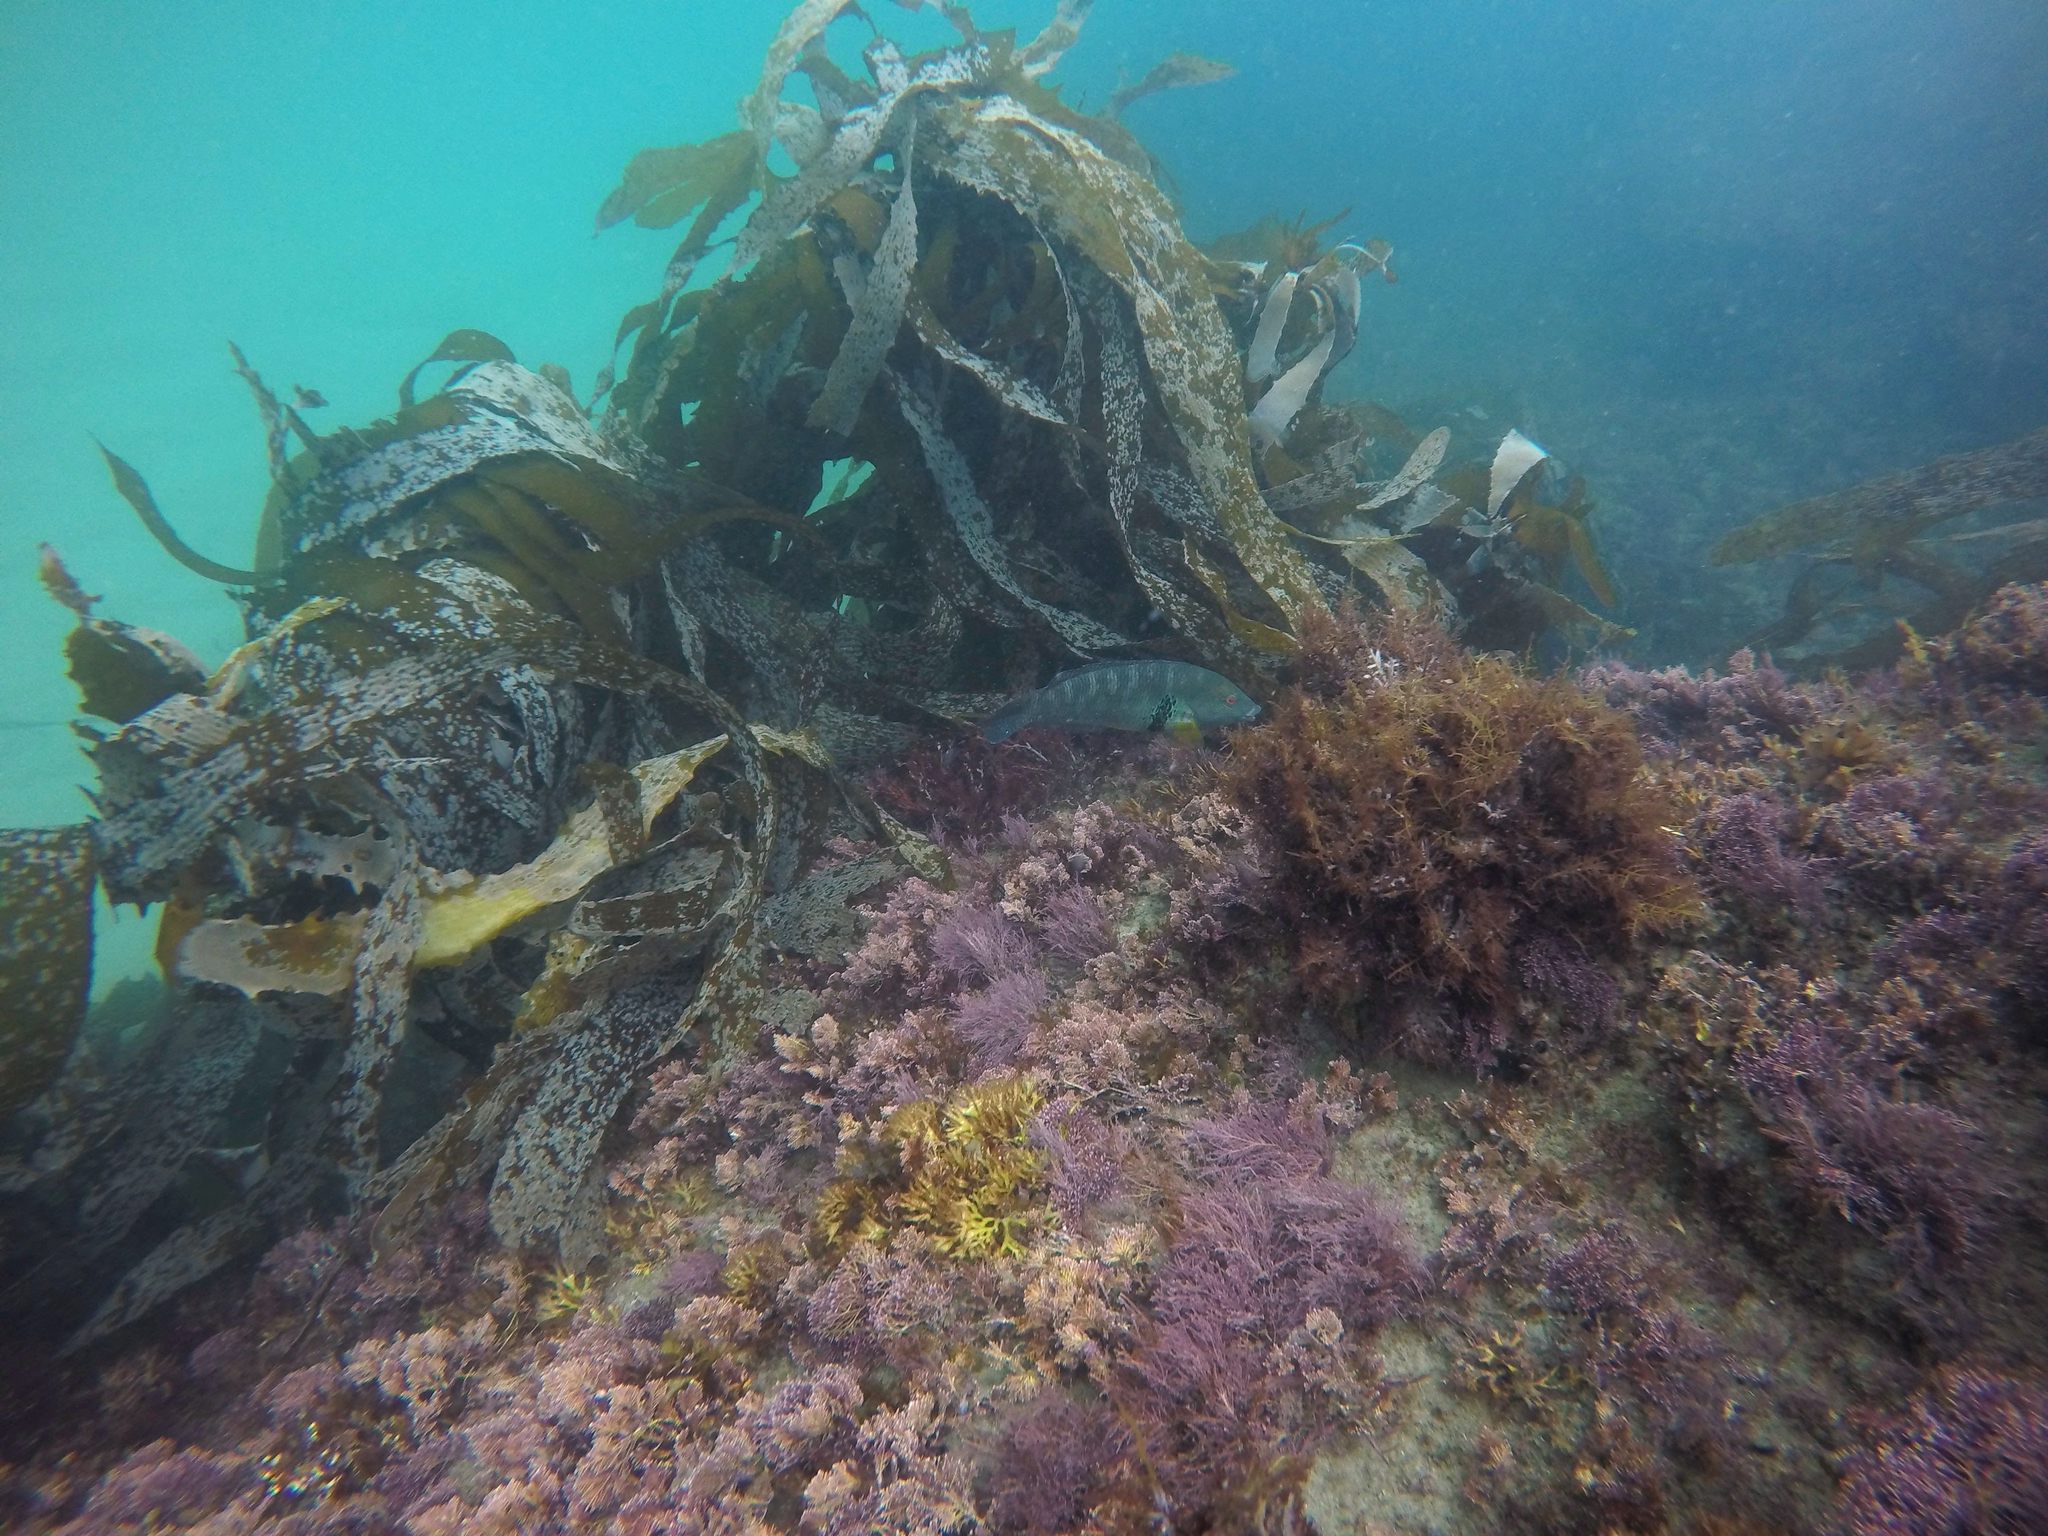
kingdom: Animalia
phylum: Chordata
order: Perciformes
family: Labridae
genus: Halichoeres
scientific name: Halichoeres semicinctus
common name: Rock wrasse
